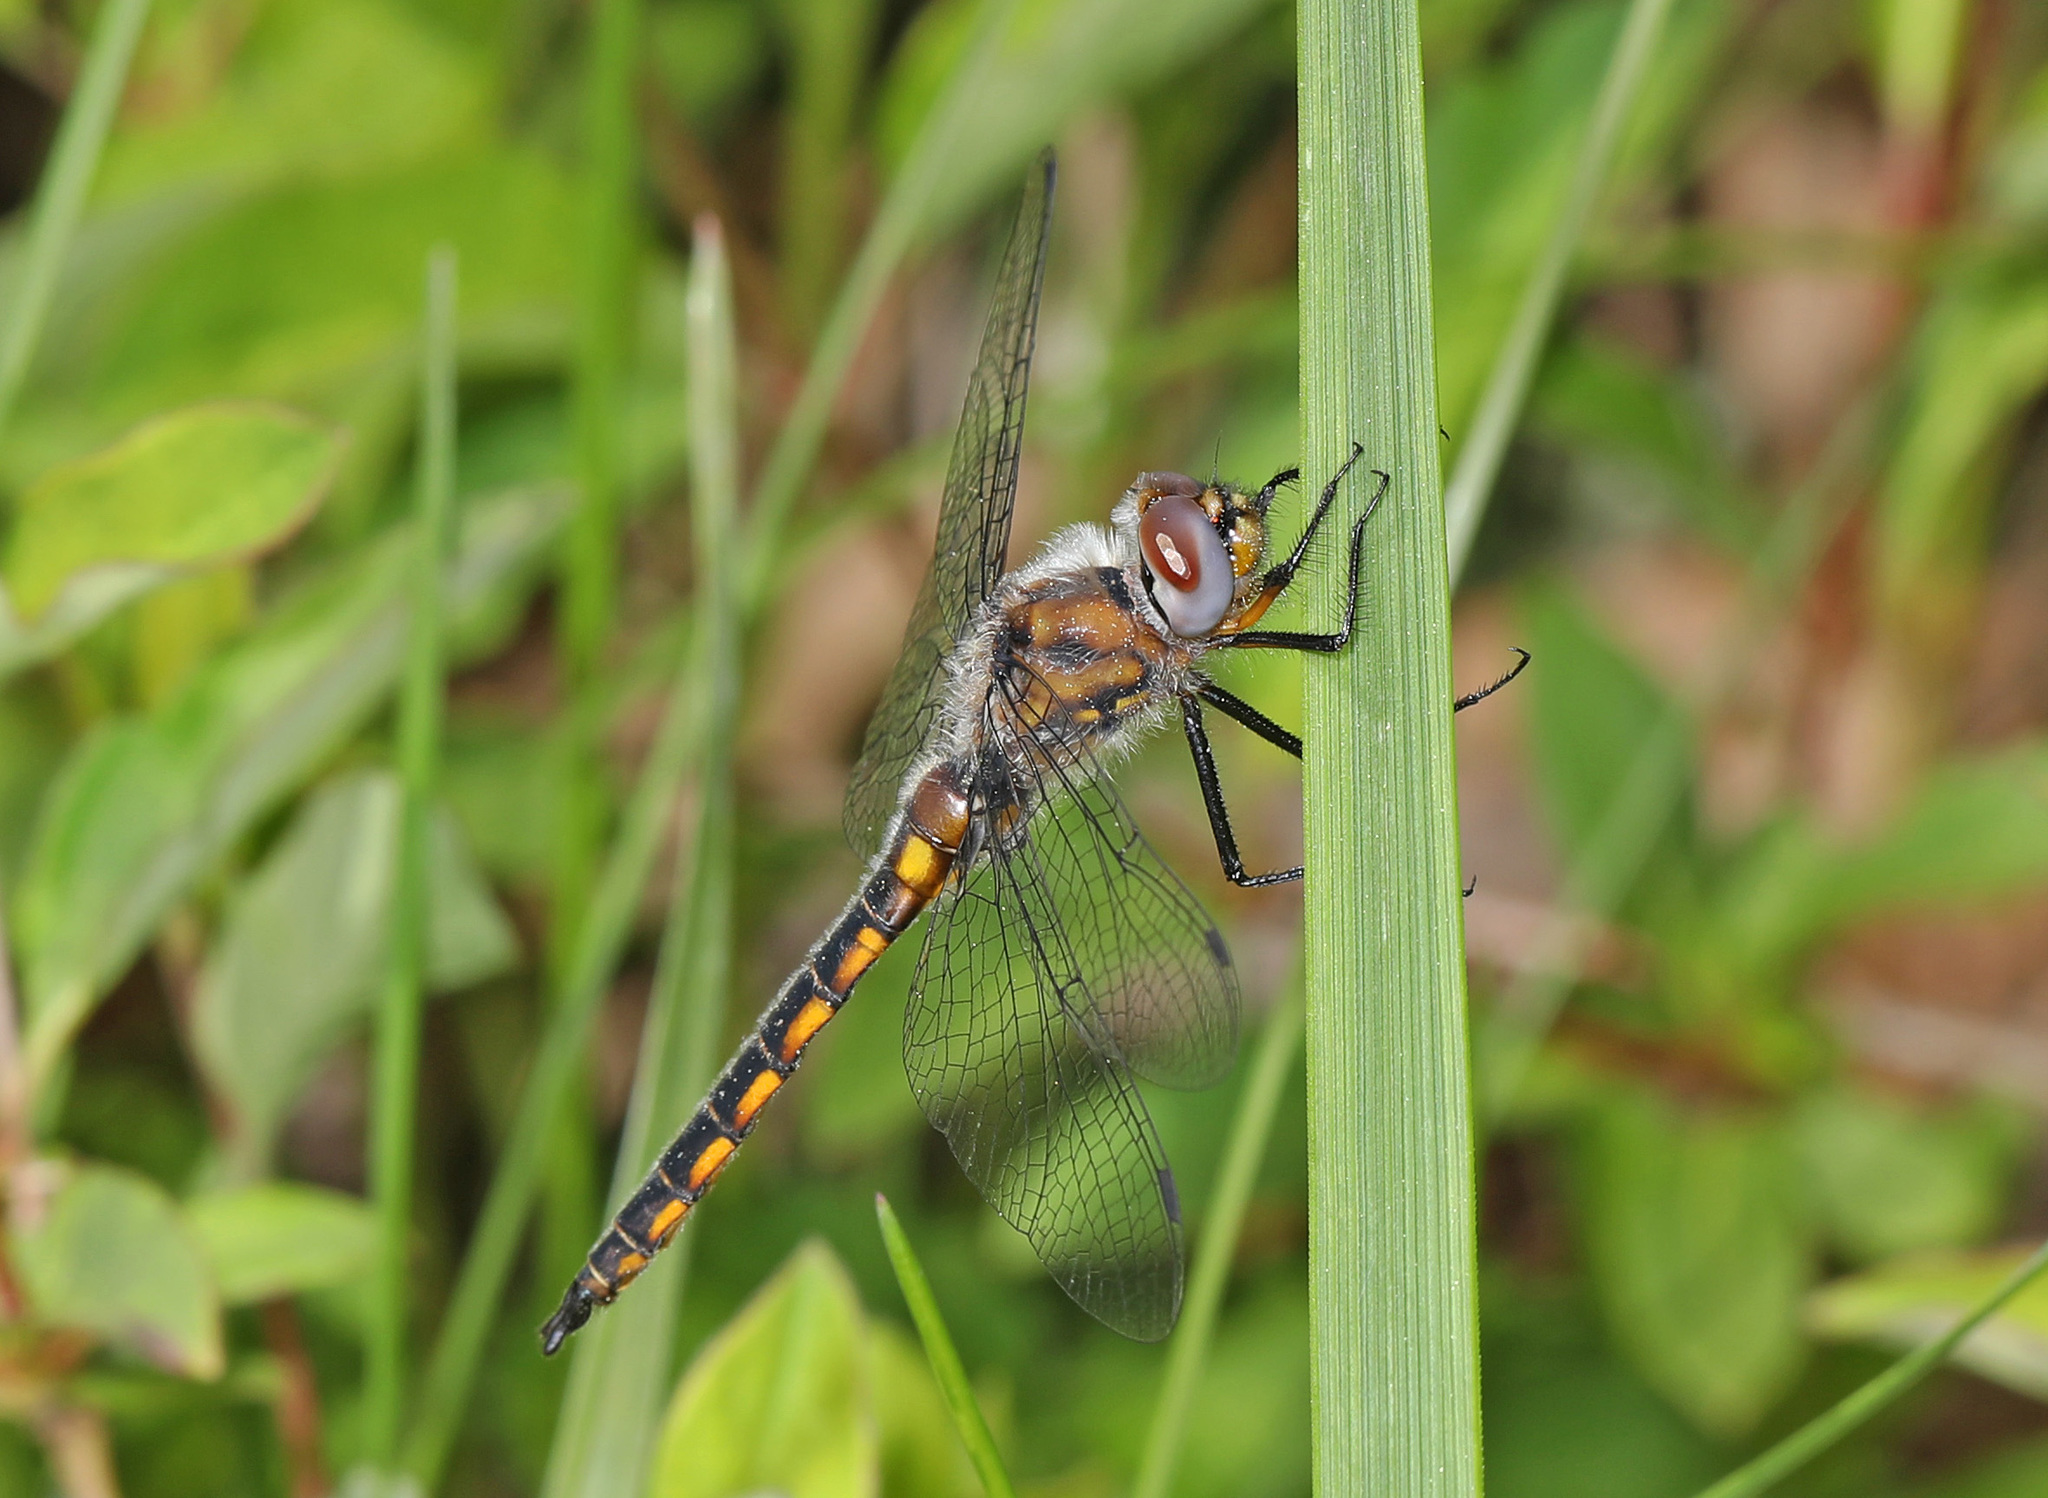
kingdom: Animalia
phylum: Arthropoda
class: Insecta
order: Odonata
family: Corduliidae
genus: Epitheca
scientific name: Epitheca cynosura
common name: Common baskettail
